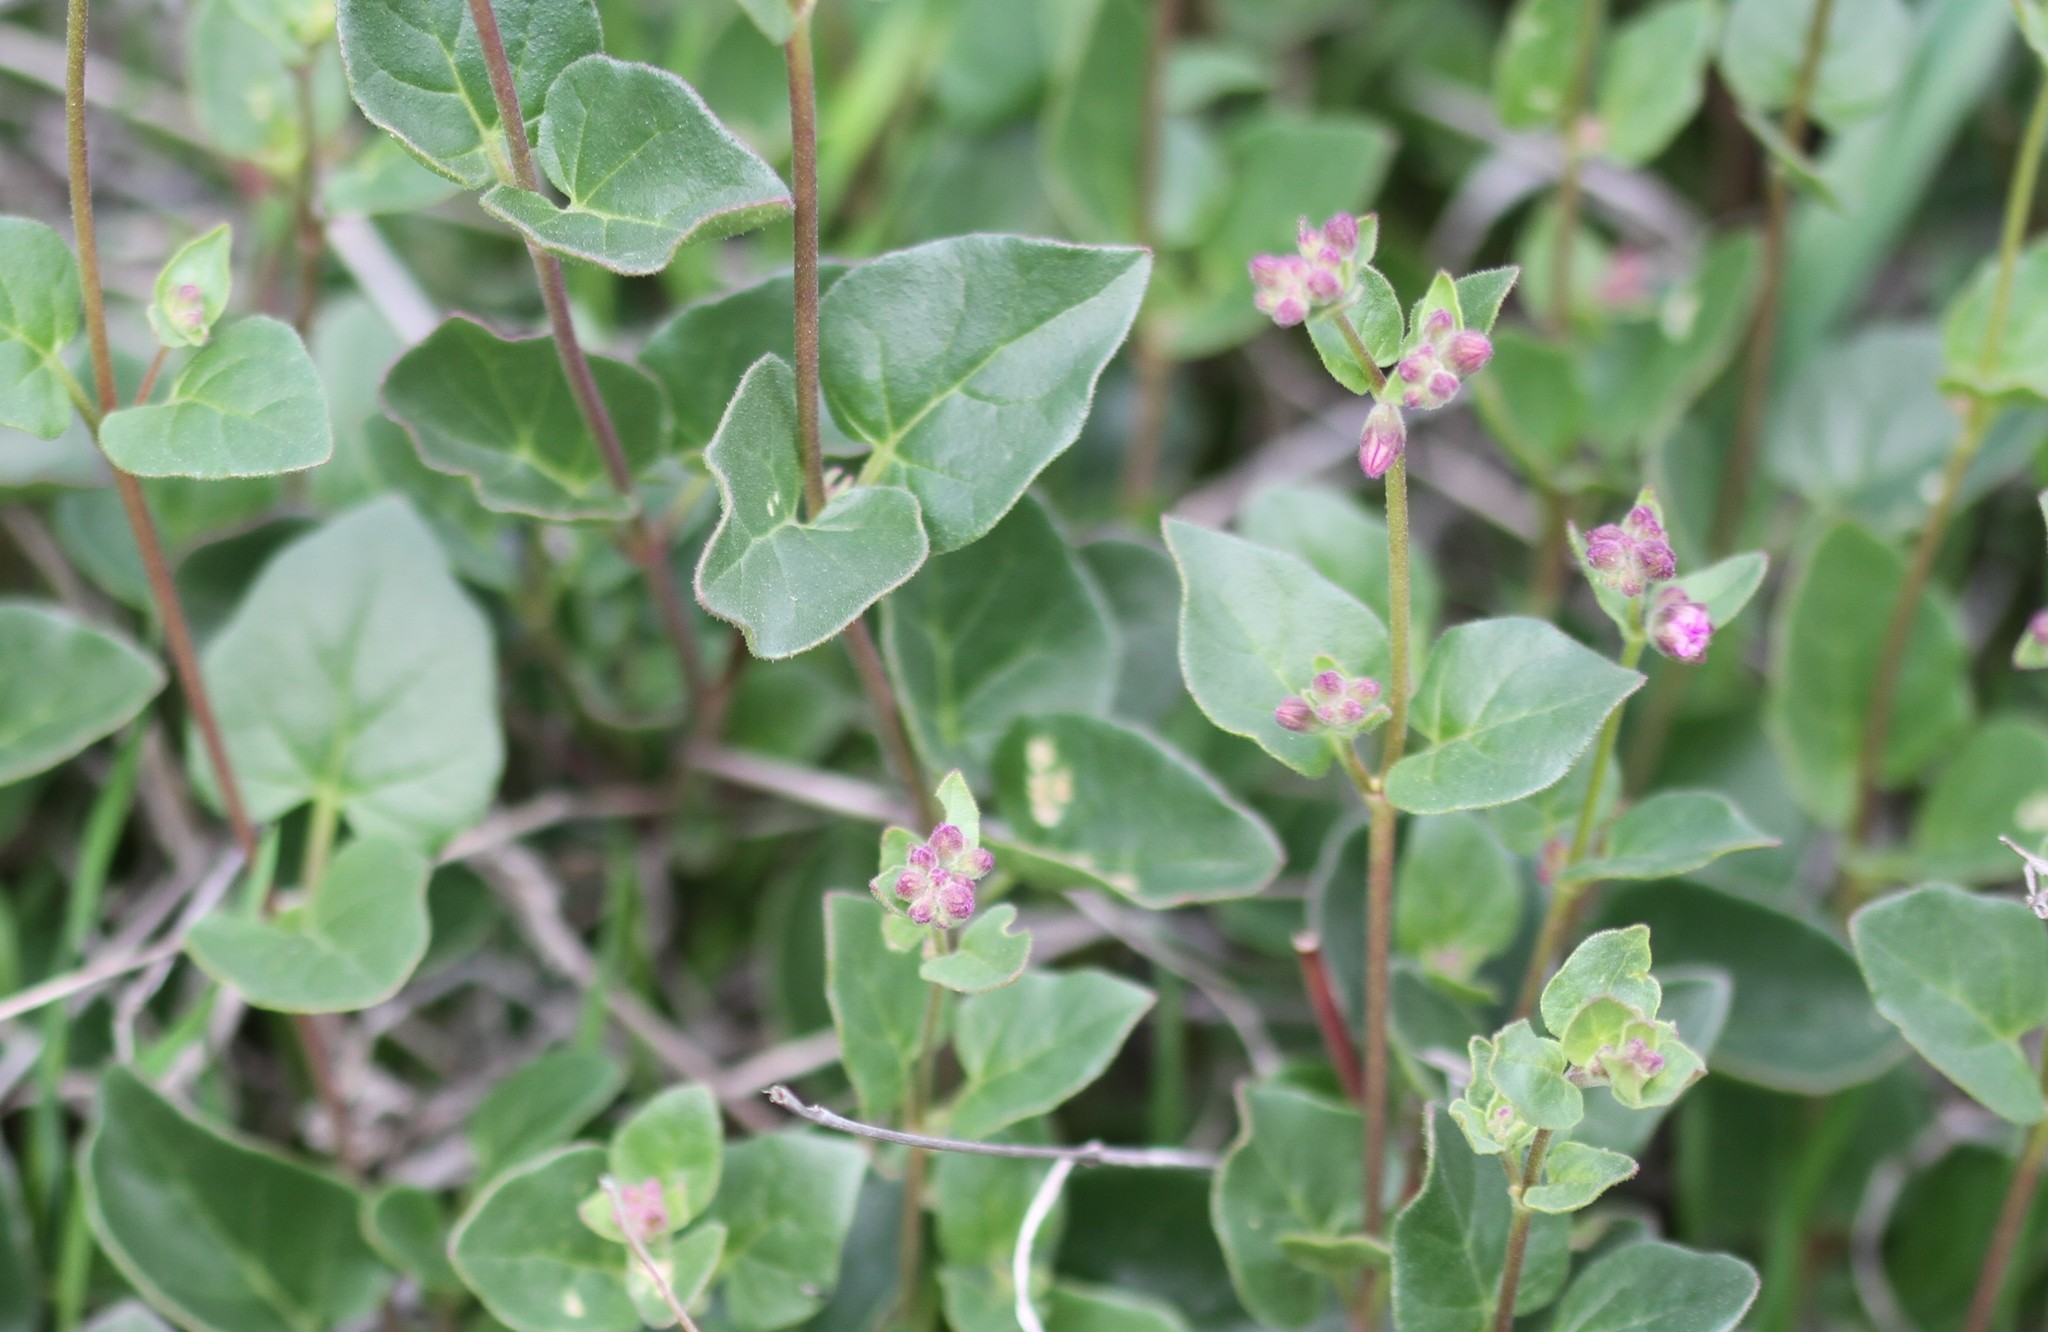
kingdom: Plantae
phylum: Tracheophyta
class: Magnoliopsida
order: Caryophyllales
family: Nyctaginaceae
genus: Mirabilis
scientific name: Mirabilis laevis
